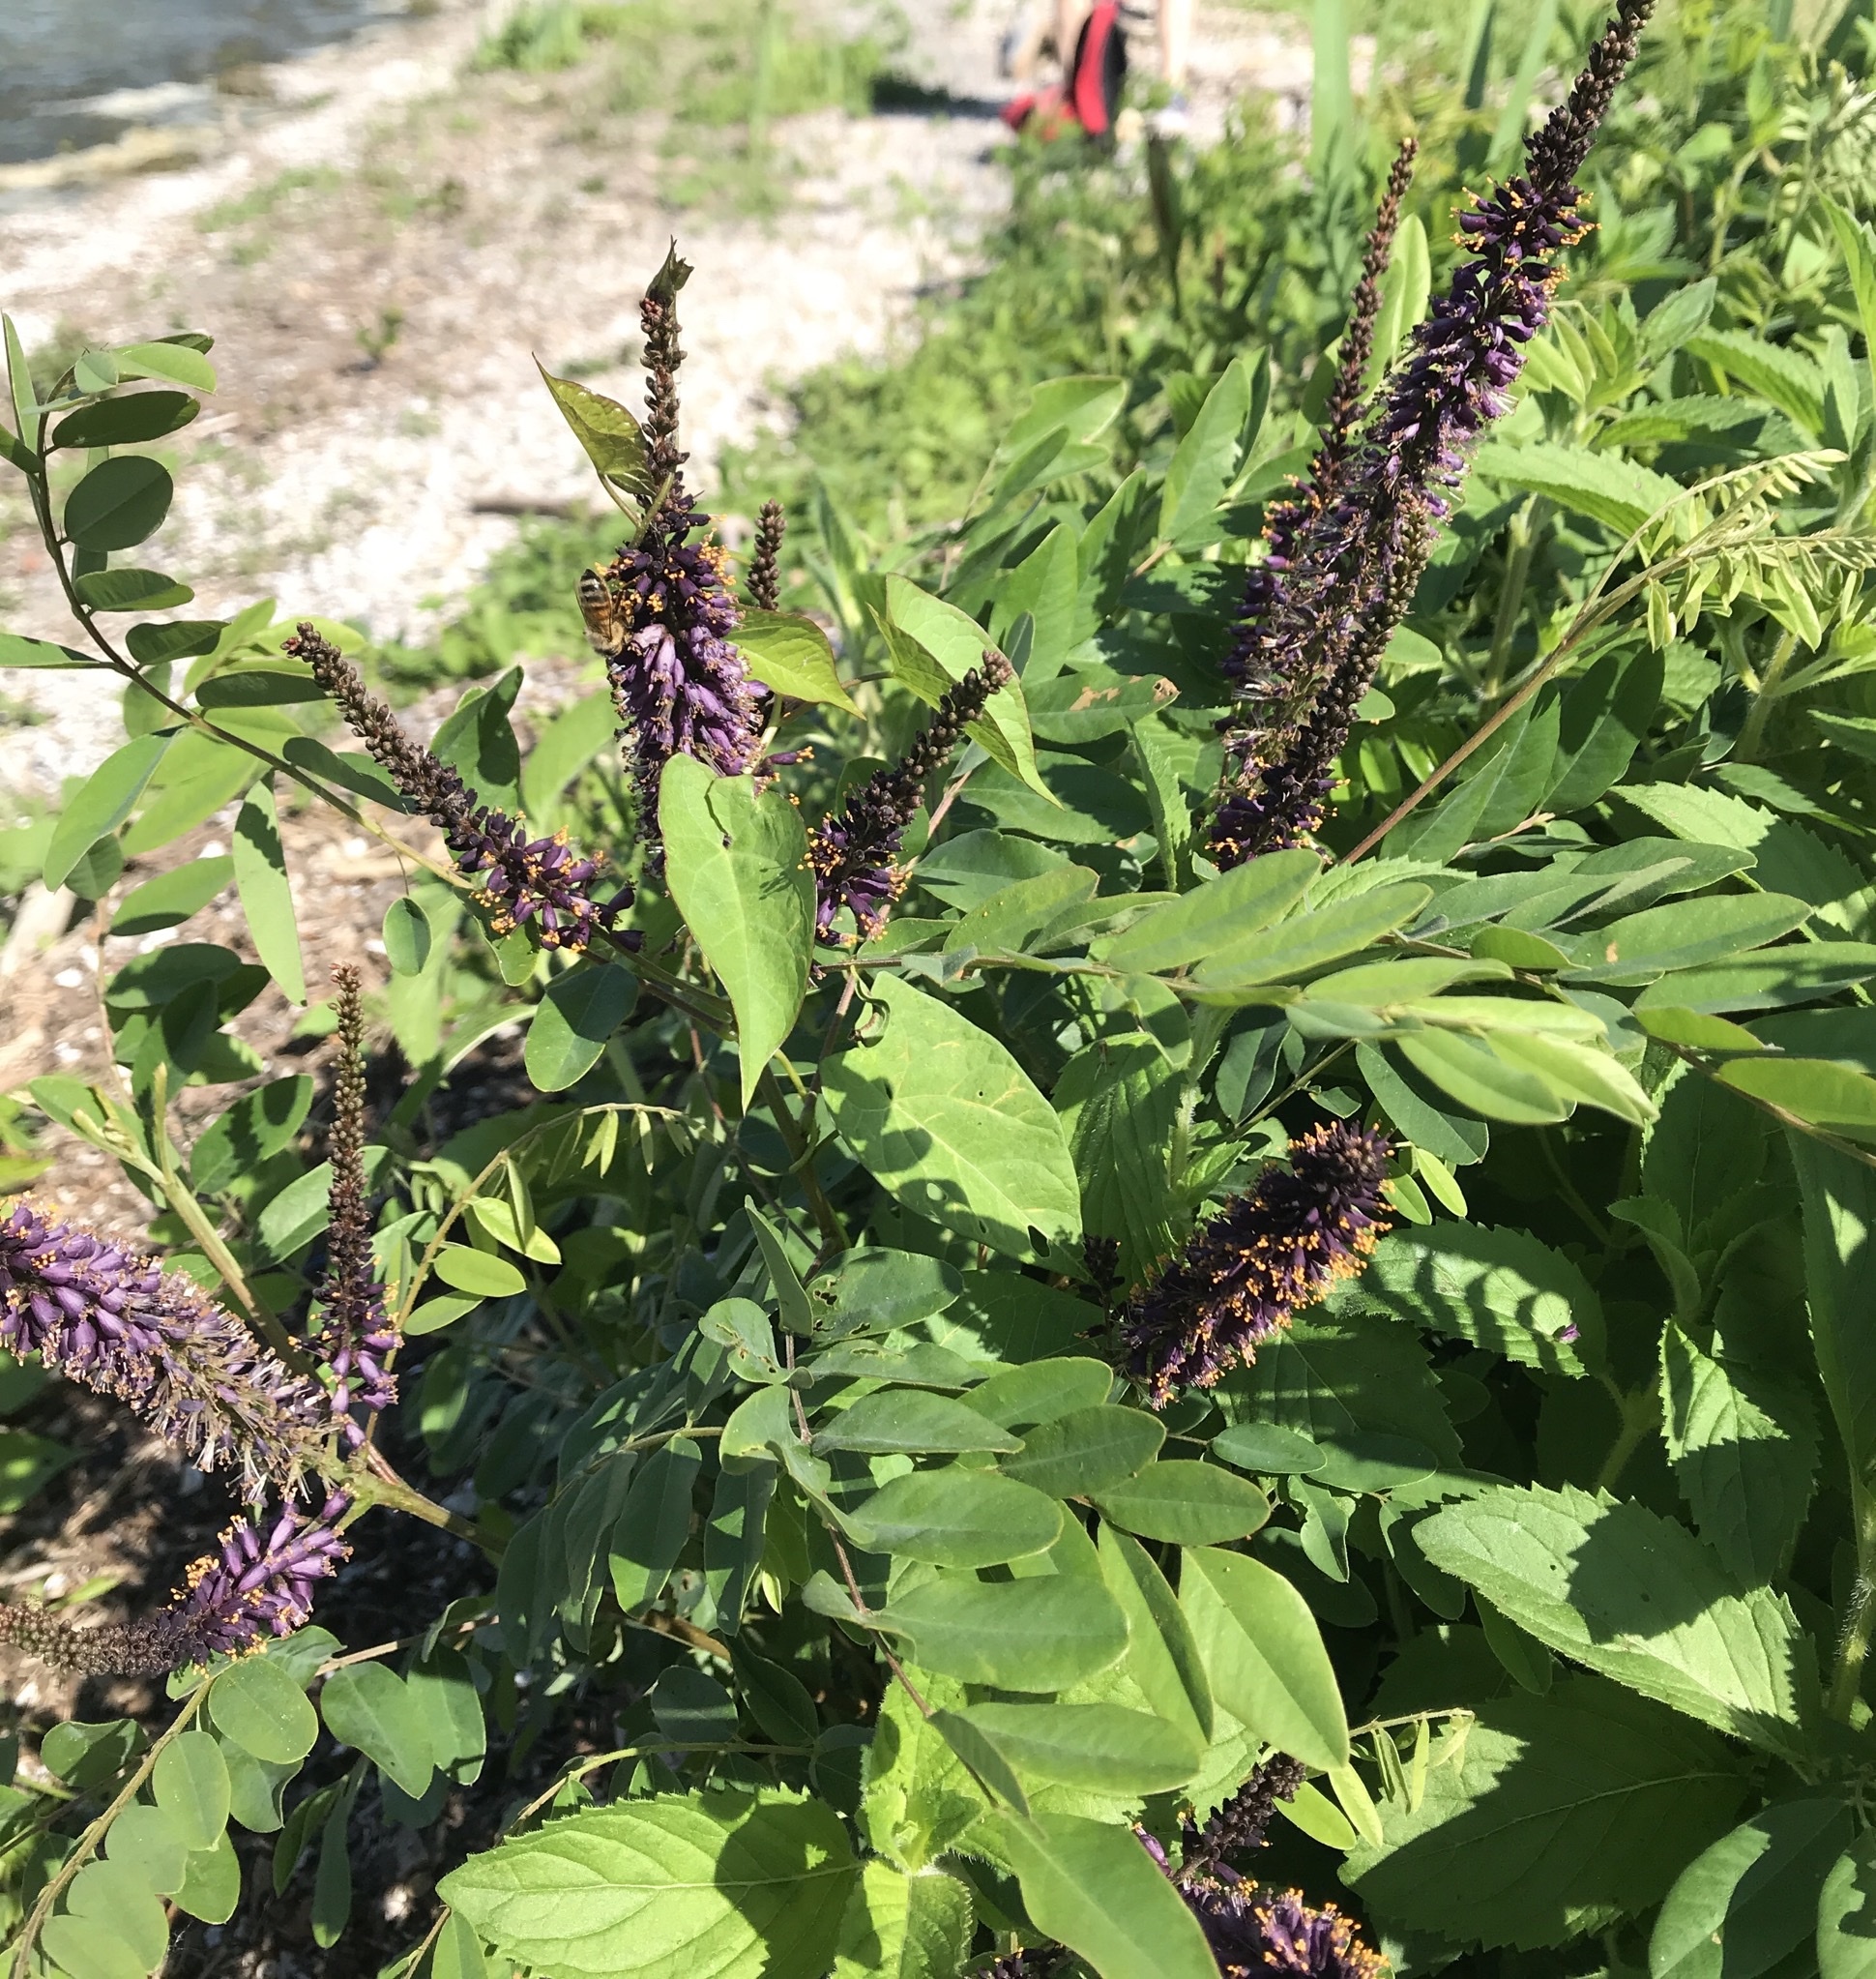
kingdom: Plantae
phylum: Tracheophyta
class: Magnoliopsida
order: Fabales
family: Fabaceae
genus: Amorpha
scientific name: Amorpha fruticosa
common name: False indigo
